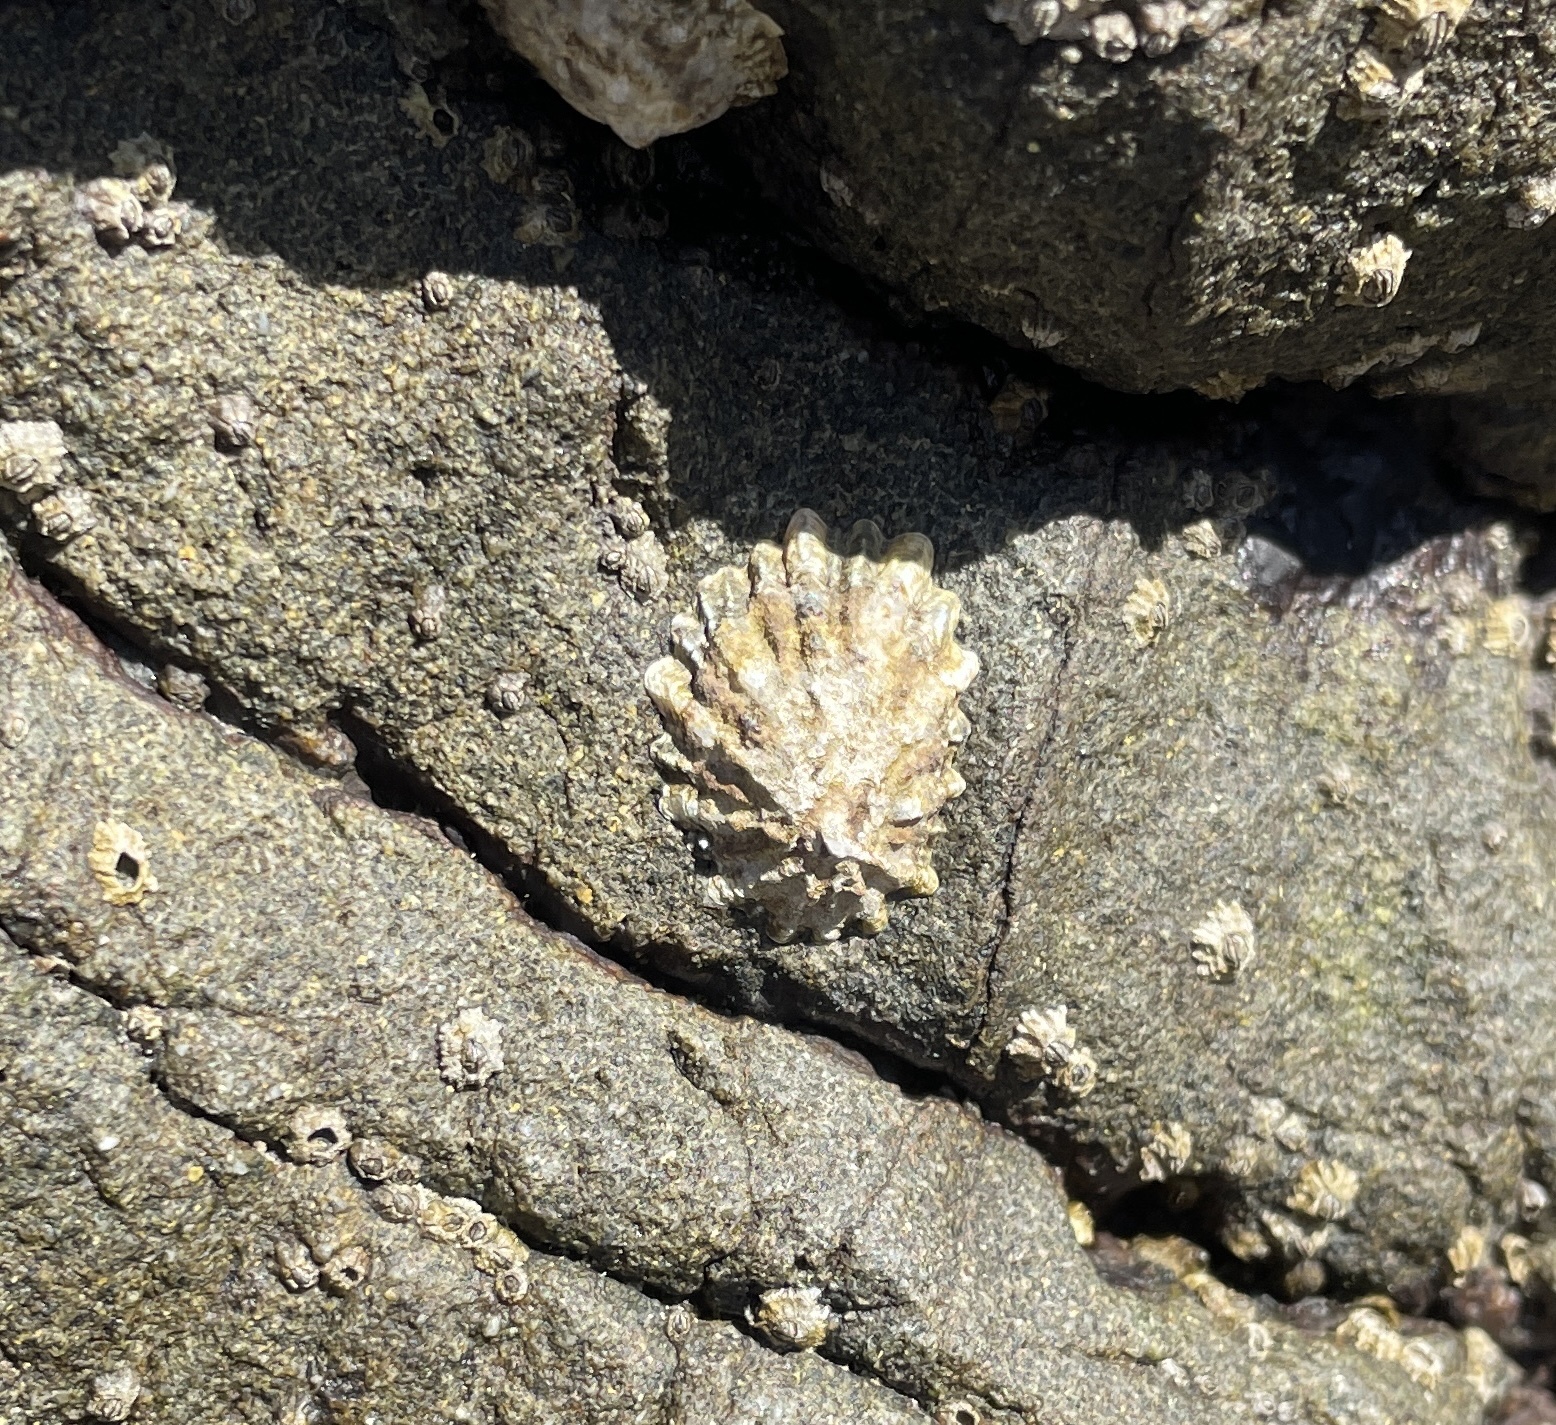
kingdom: Animalia
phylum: Mollusca
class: Gastropoda
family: Lottiidae
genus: Lottia
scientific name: Lottia scabra
